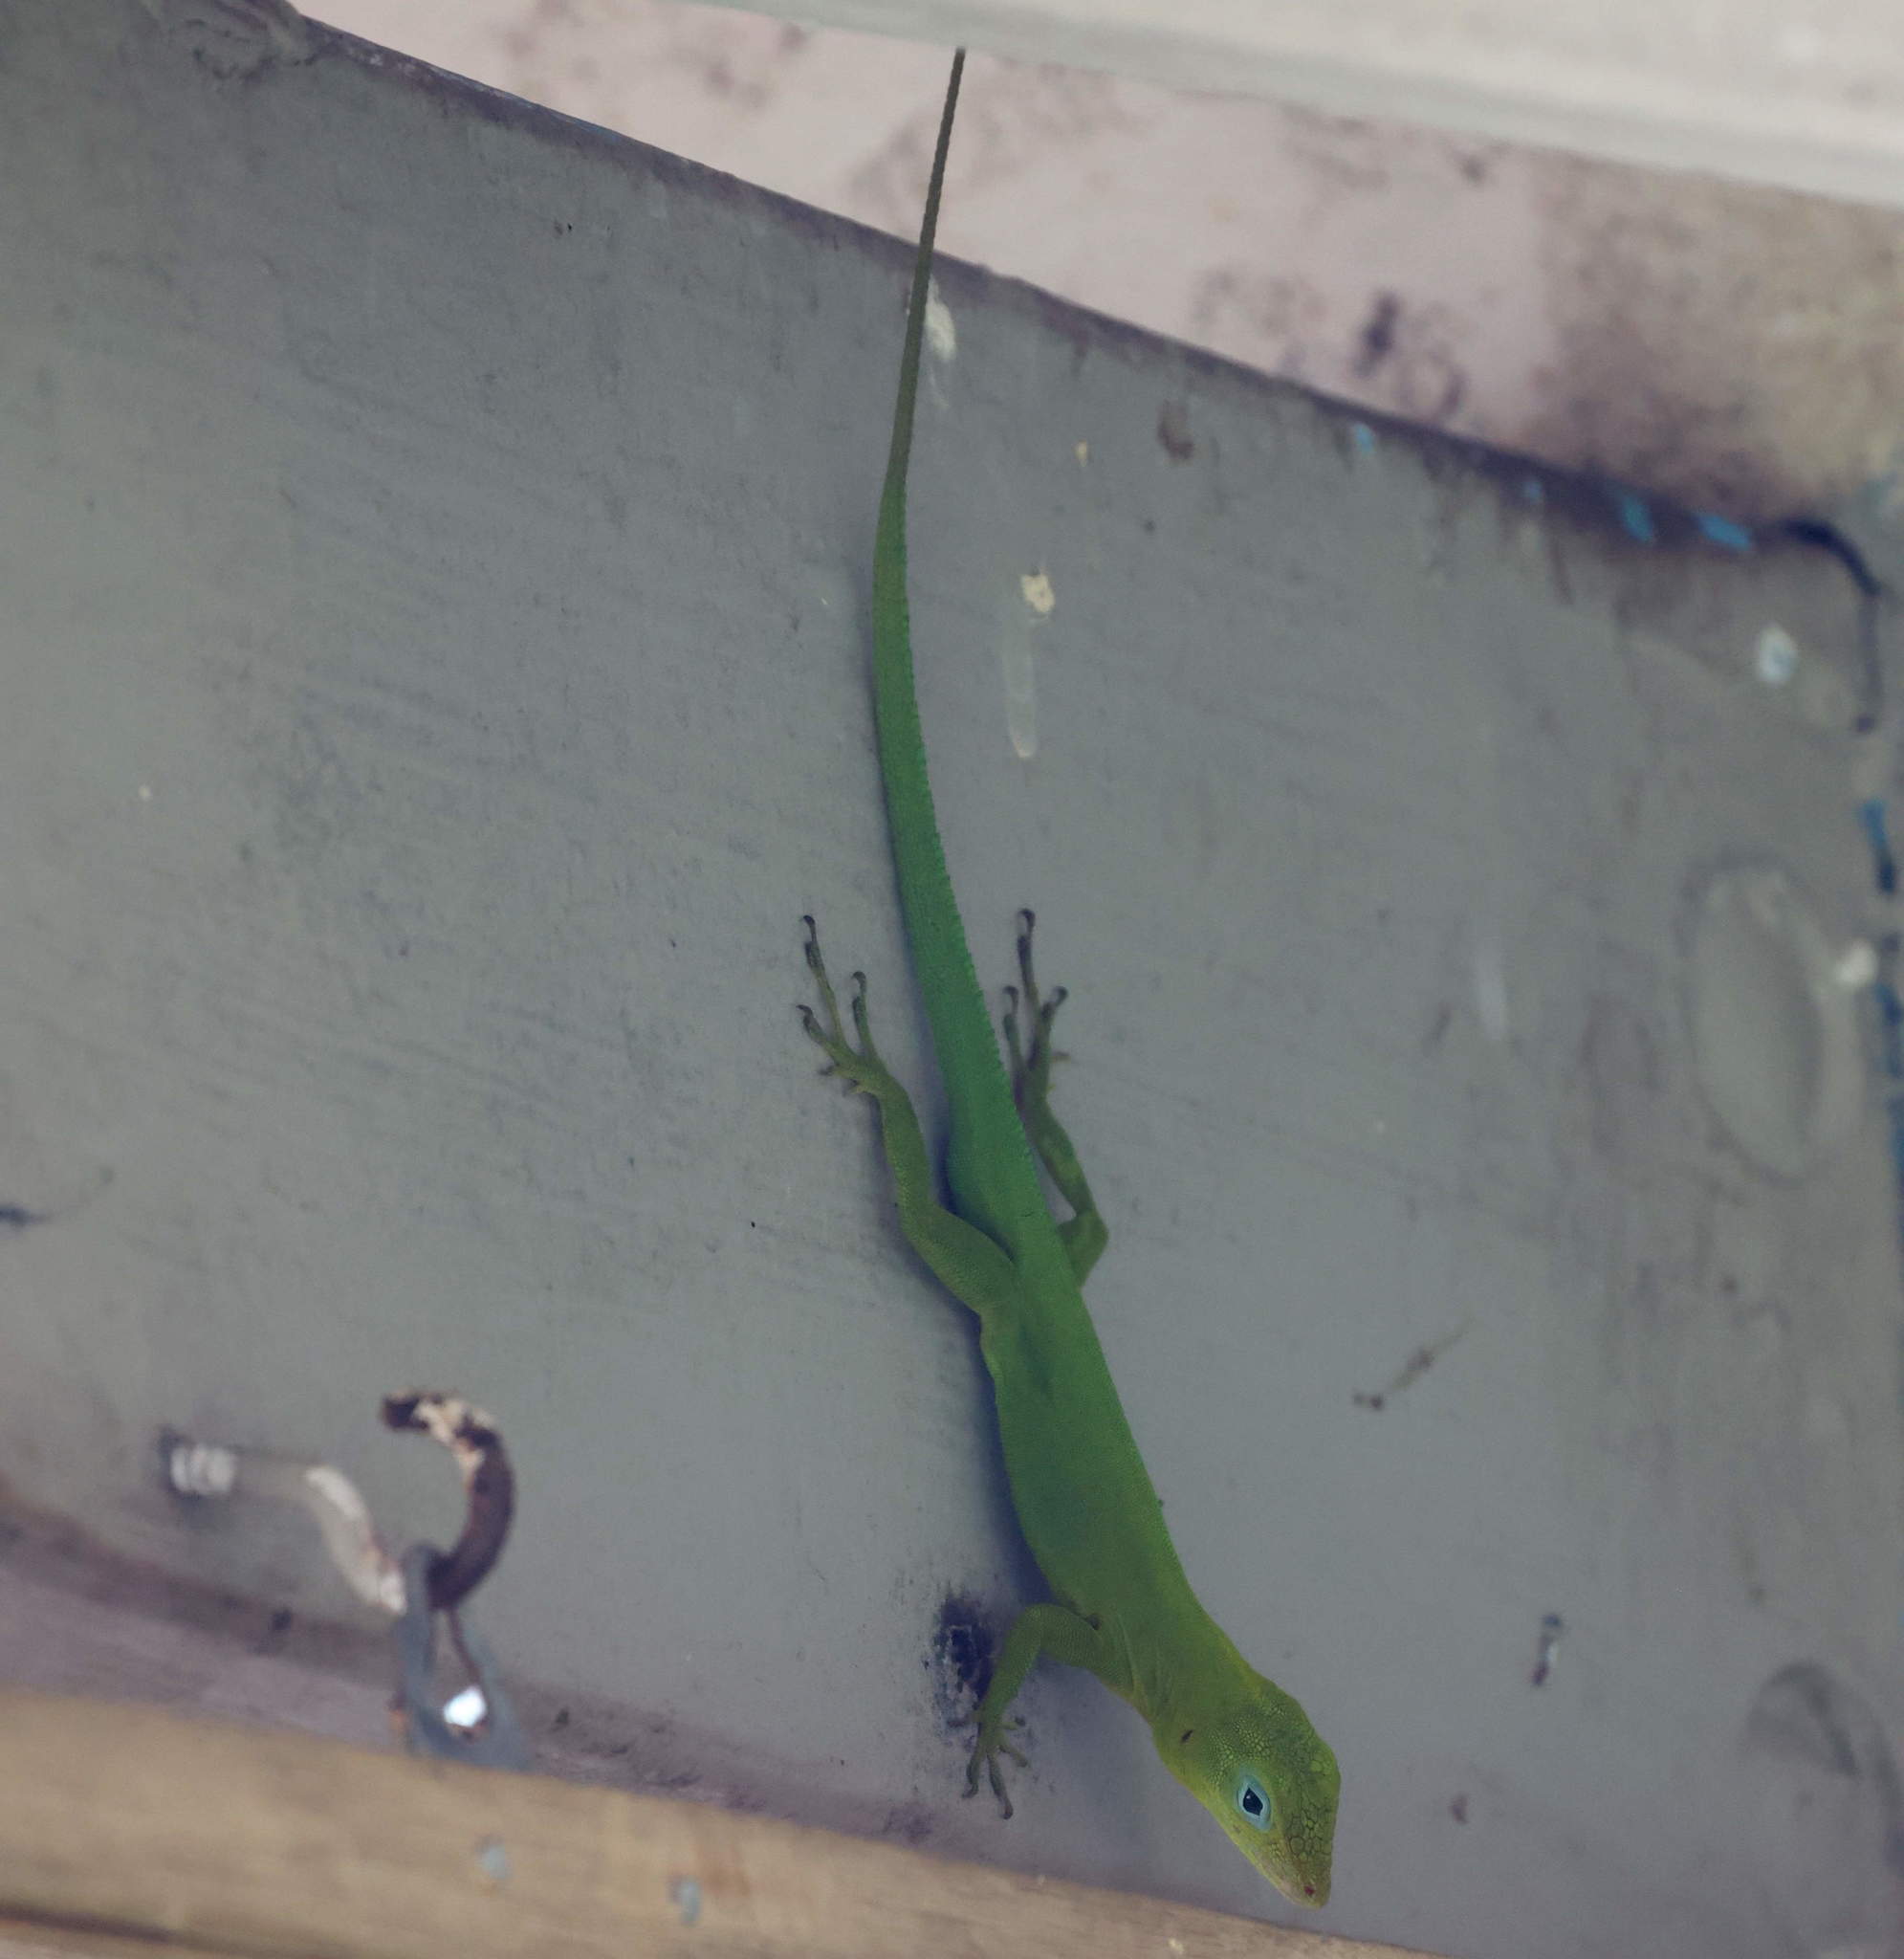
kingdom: Animalia
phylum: Chordata
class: Squamata
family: Dactyloidae
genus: Anolis
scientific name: Anolis marmoratus
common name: Guadeloupe anole
